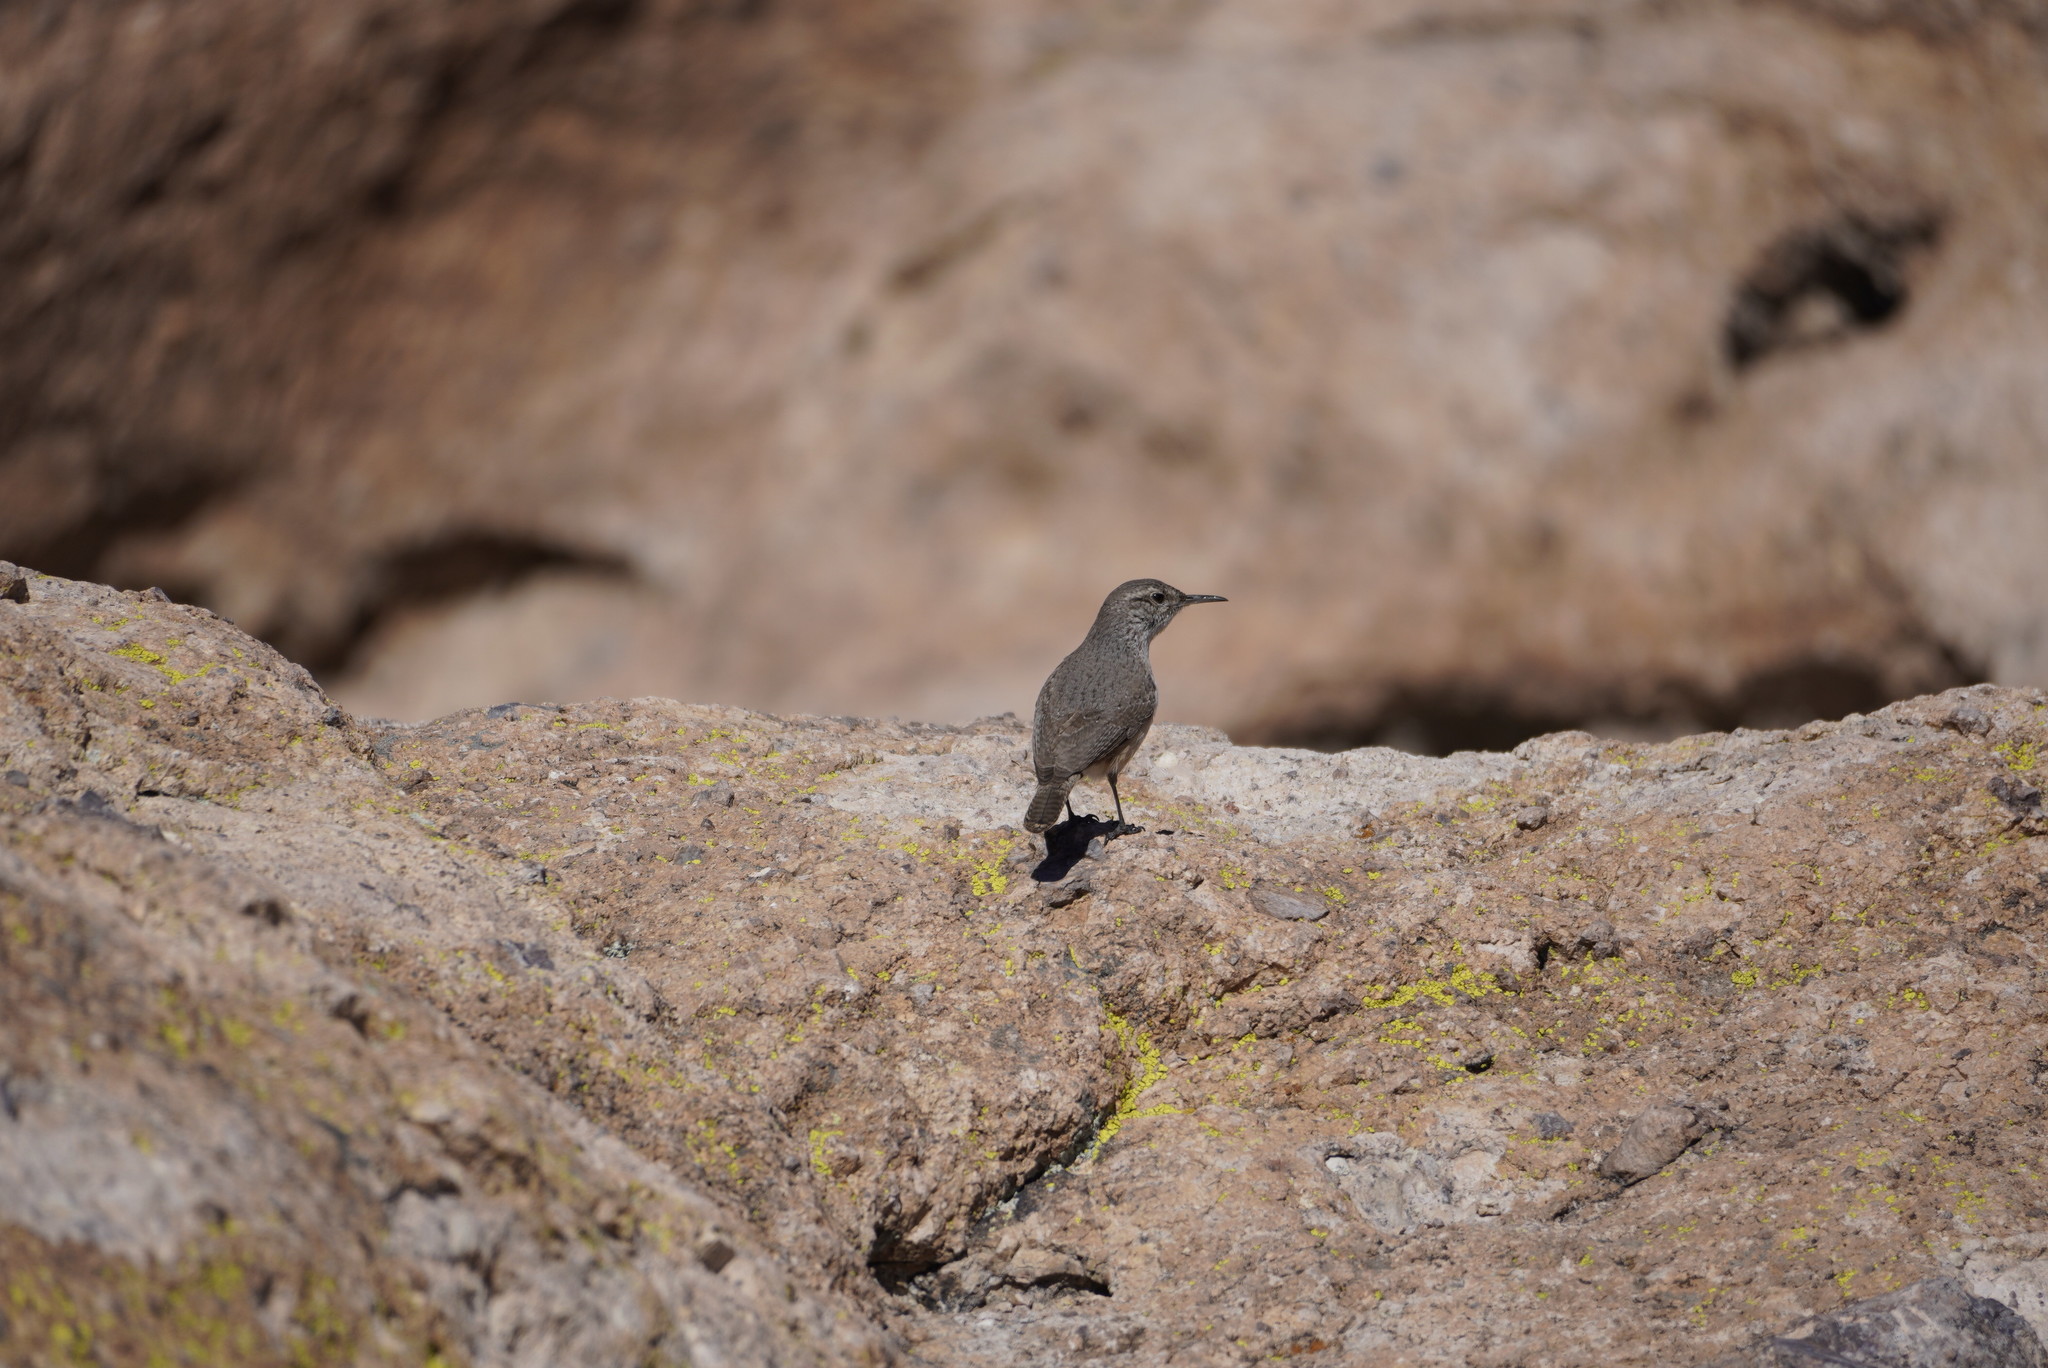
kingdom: Animalia
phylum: Chordata
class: Aves
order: Passeriformes
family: Troglodytidae
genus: Salpinctes
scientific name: Salpinctes obsoletus
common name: Rock wren
